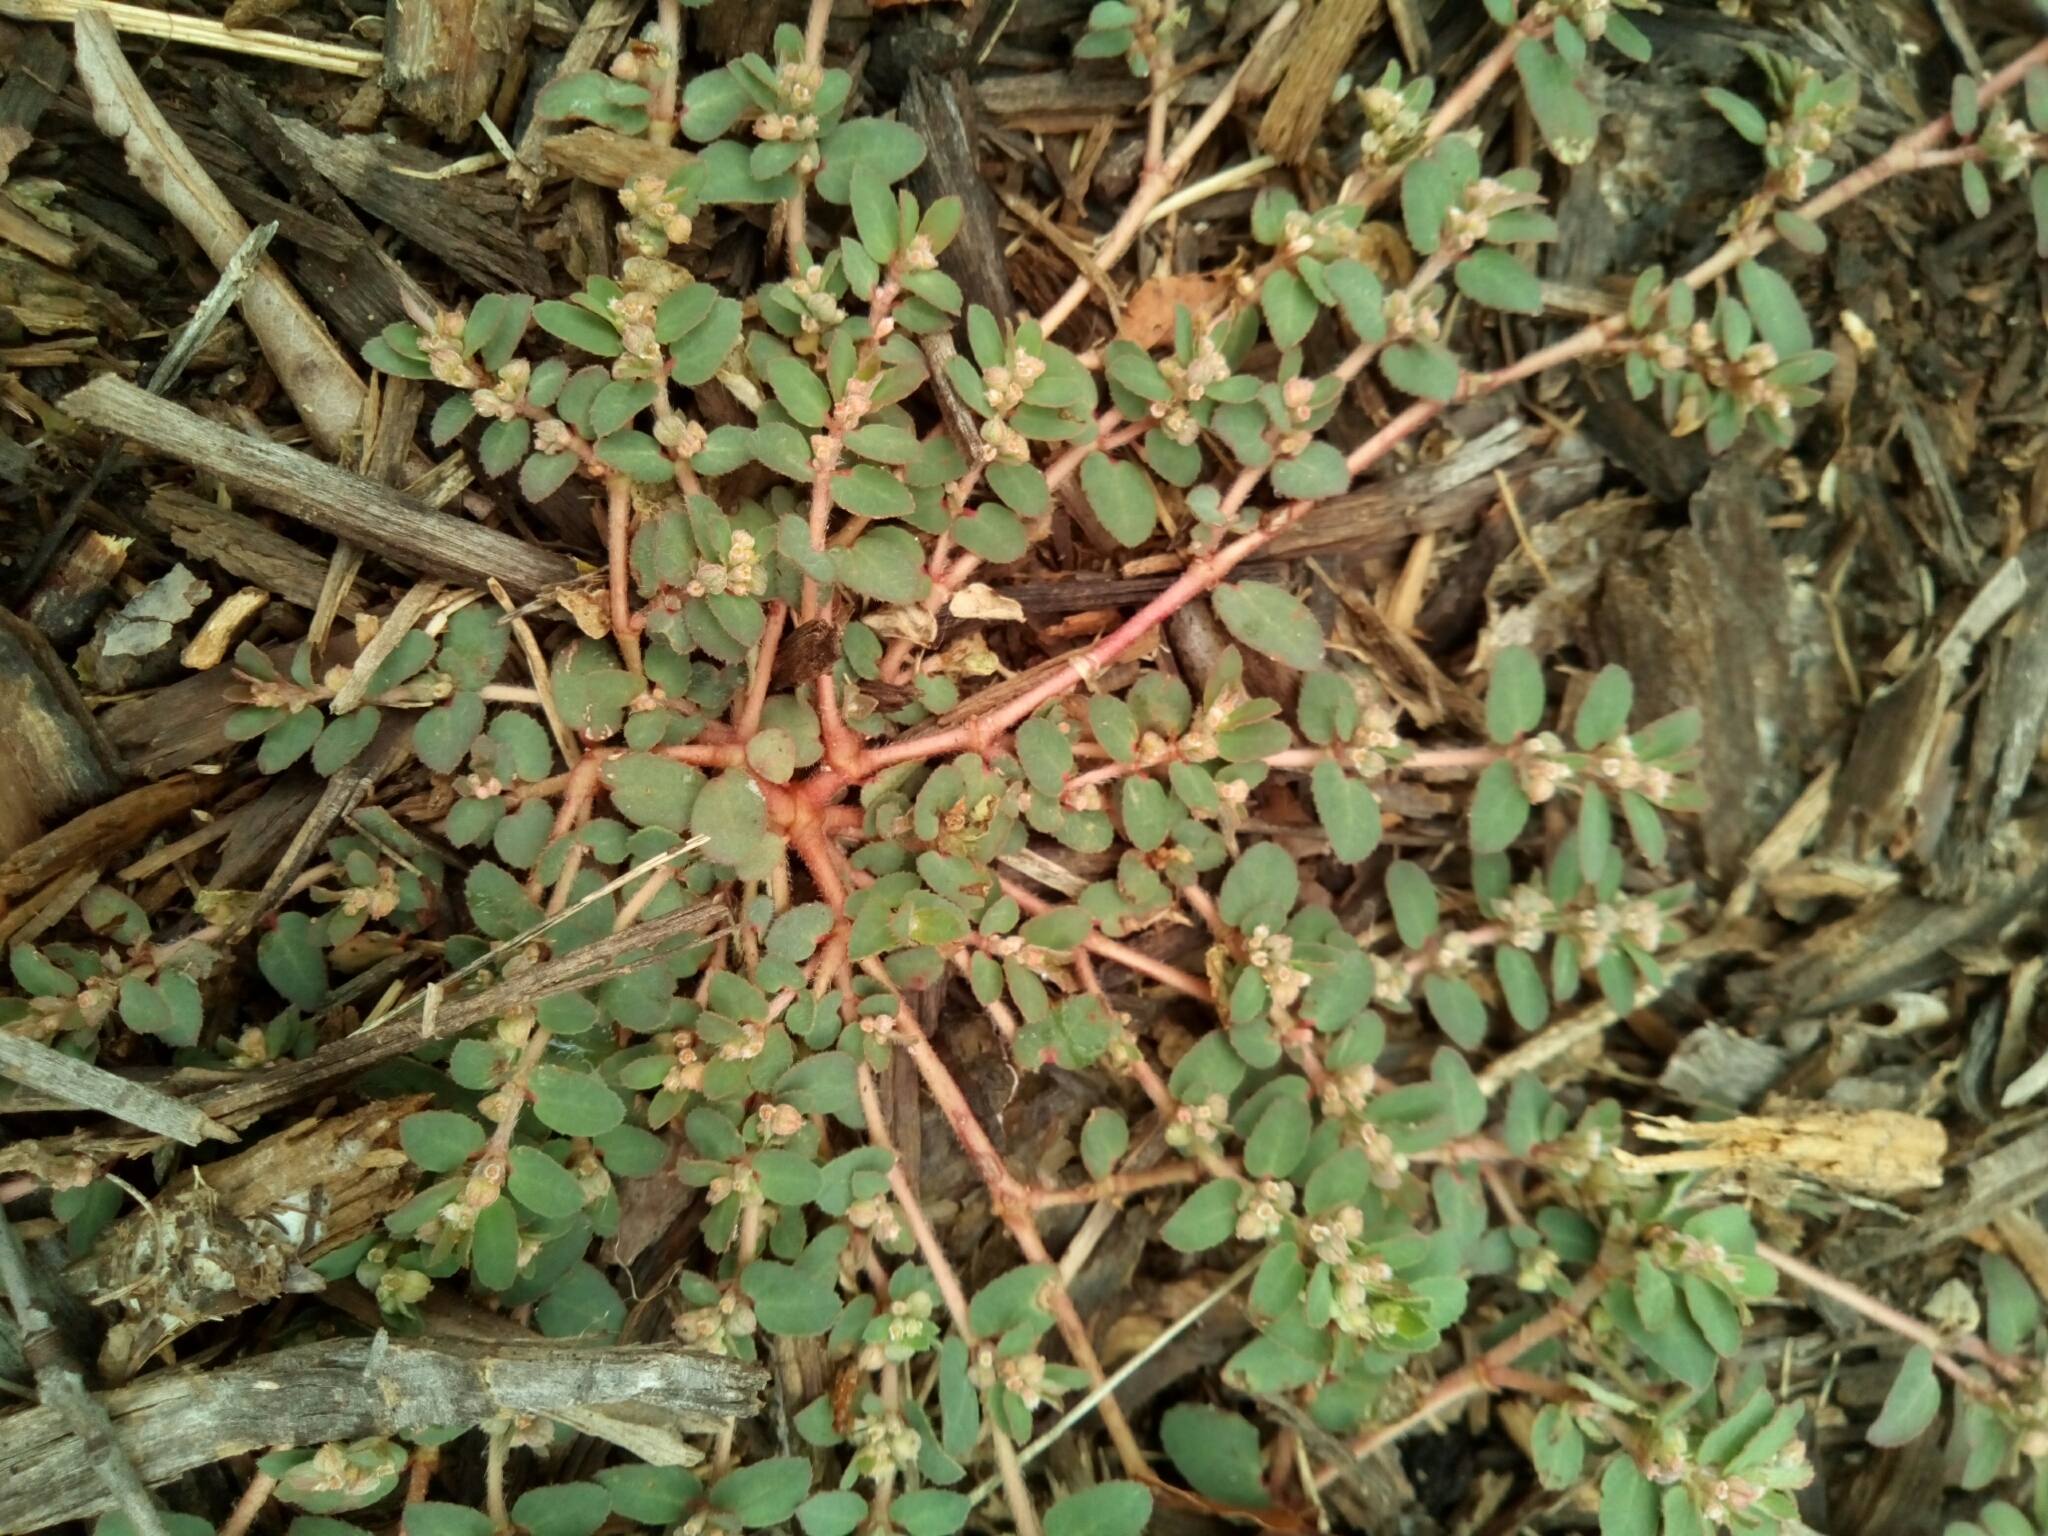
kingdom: Plantae
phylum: Tracheophyta
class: Magnoliopsida
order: Malpighiales
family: Euphorbiaceae
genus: Euphorbia
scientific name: Euphorbia maculata
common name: Spotted spurge
